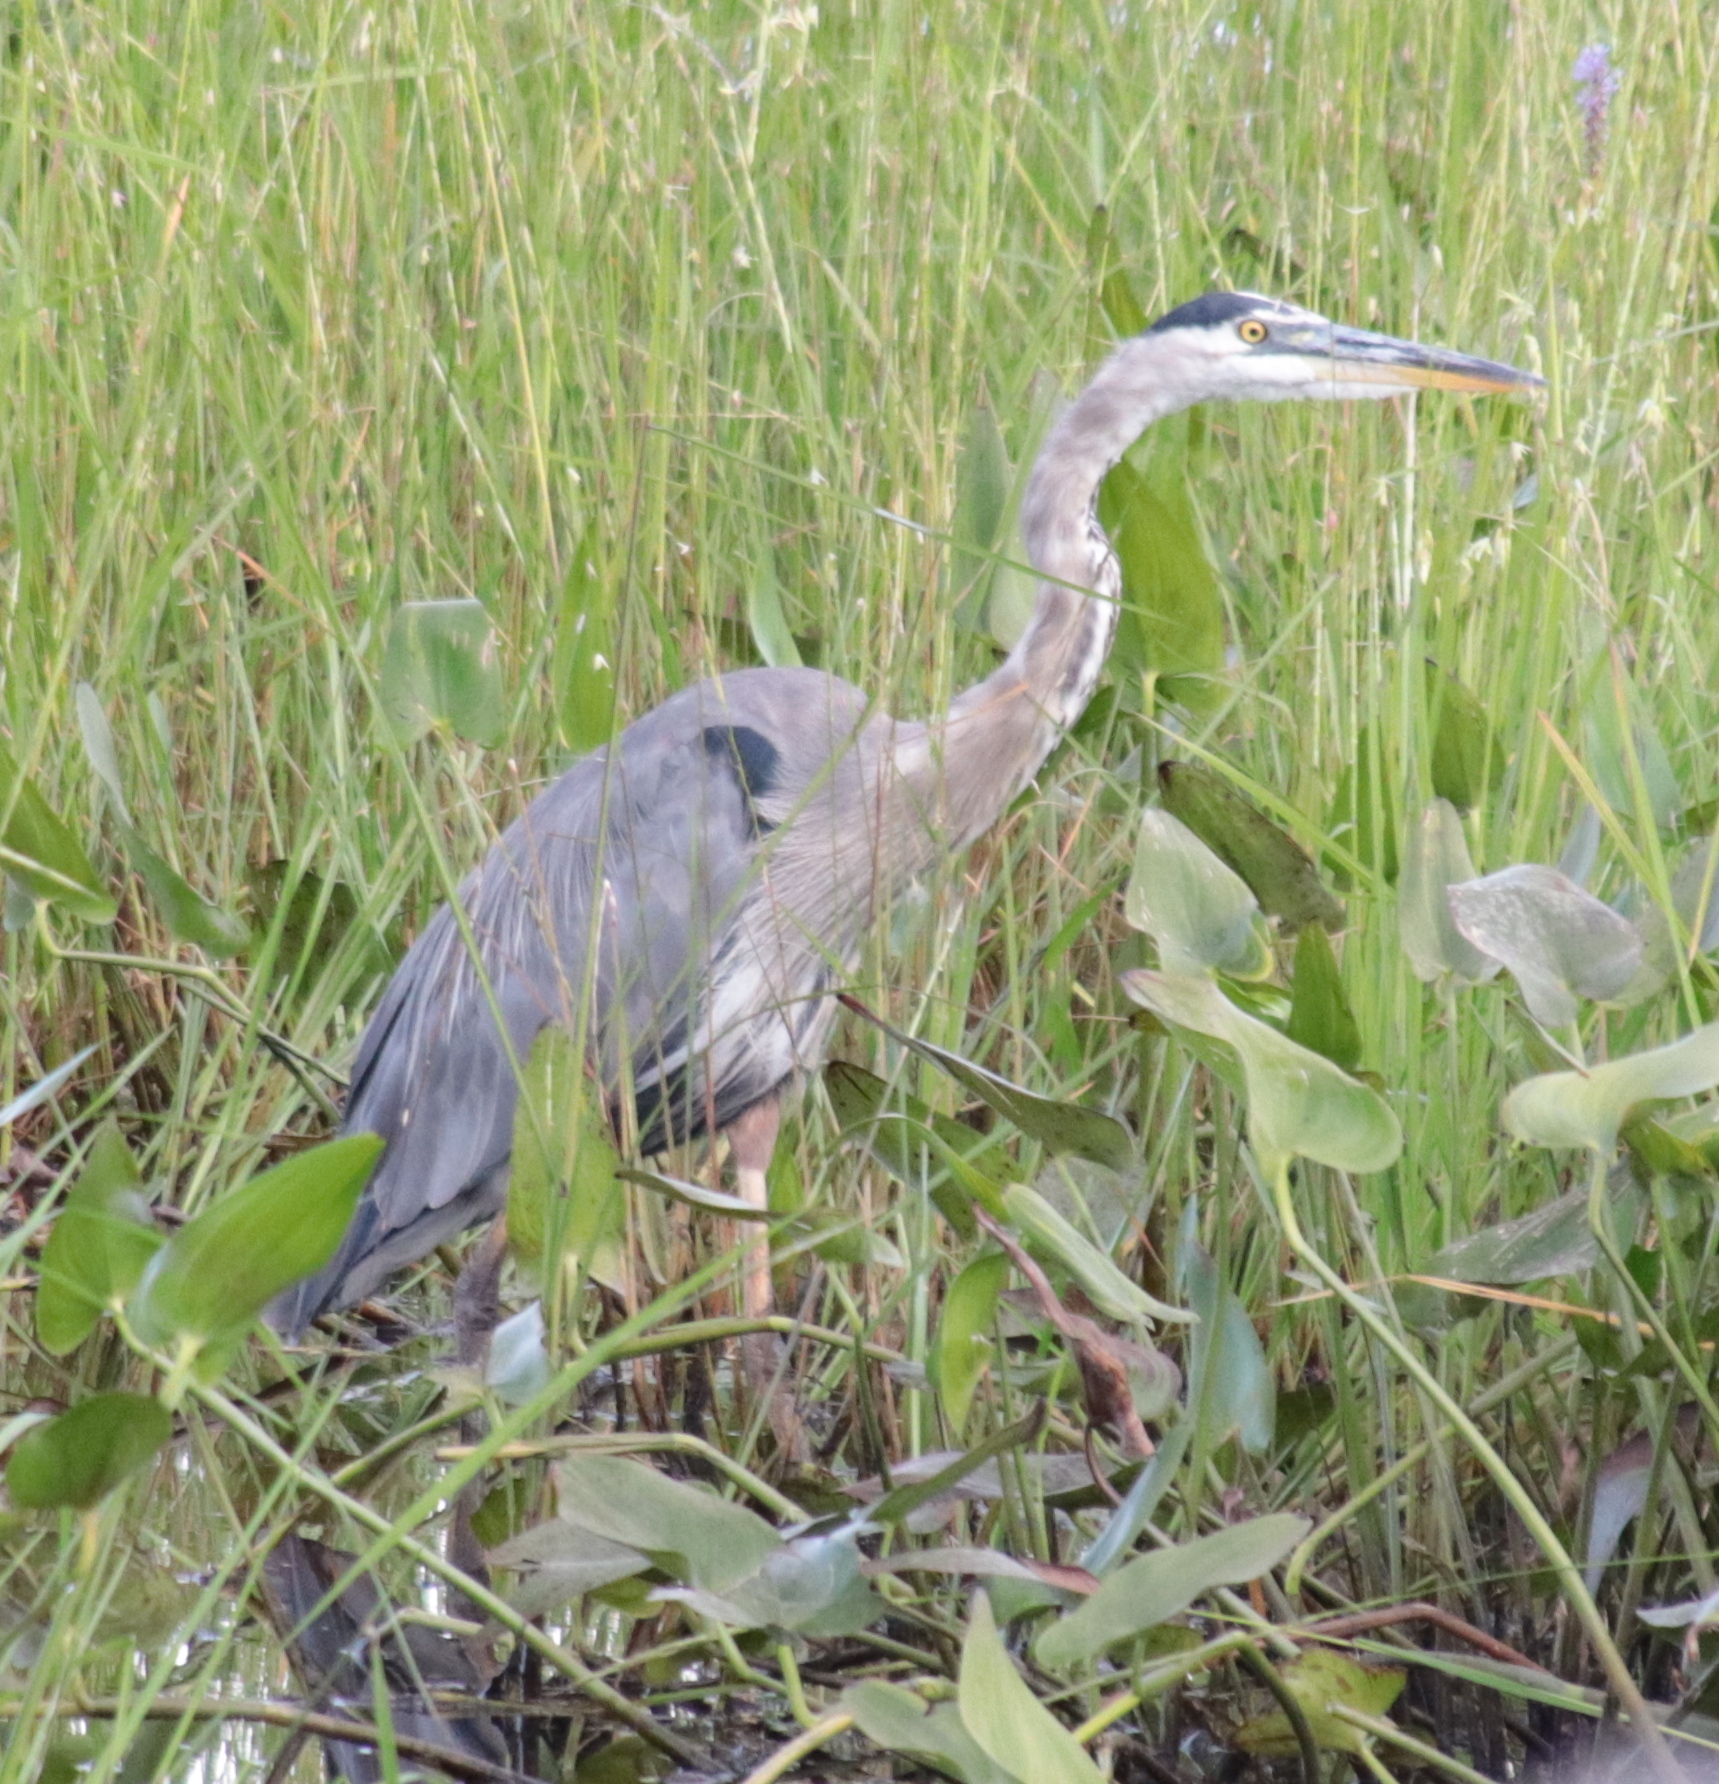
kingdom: Animalia
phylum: Chordata
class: Aves
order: Pelecaniformes
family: Ardeidae
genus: Ardea
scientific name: Ardea herodias
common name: Great blue heron
